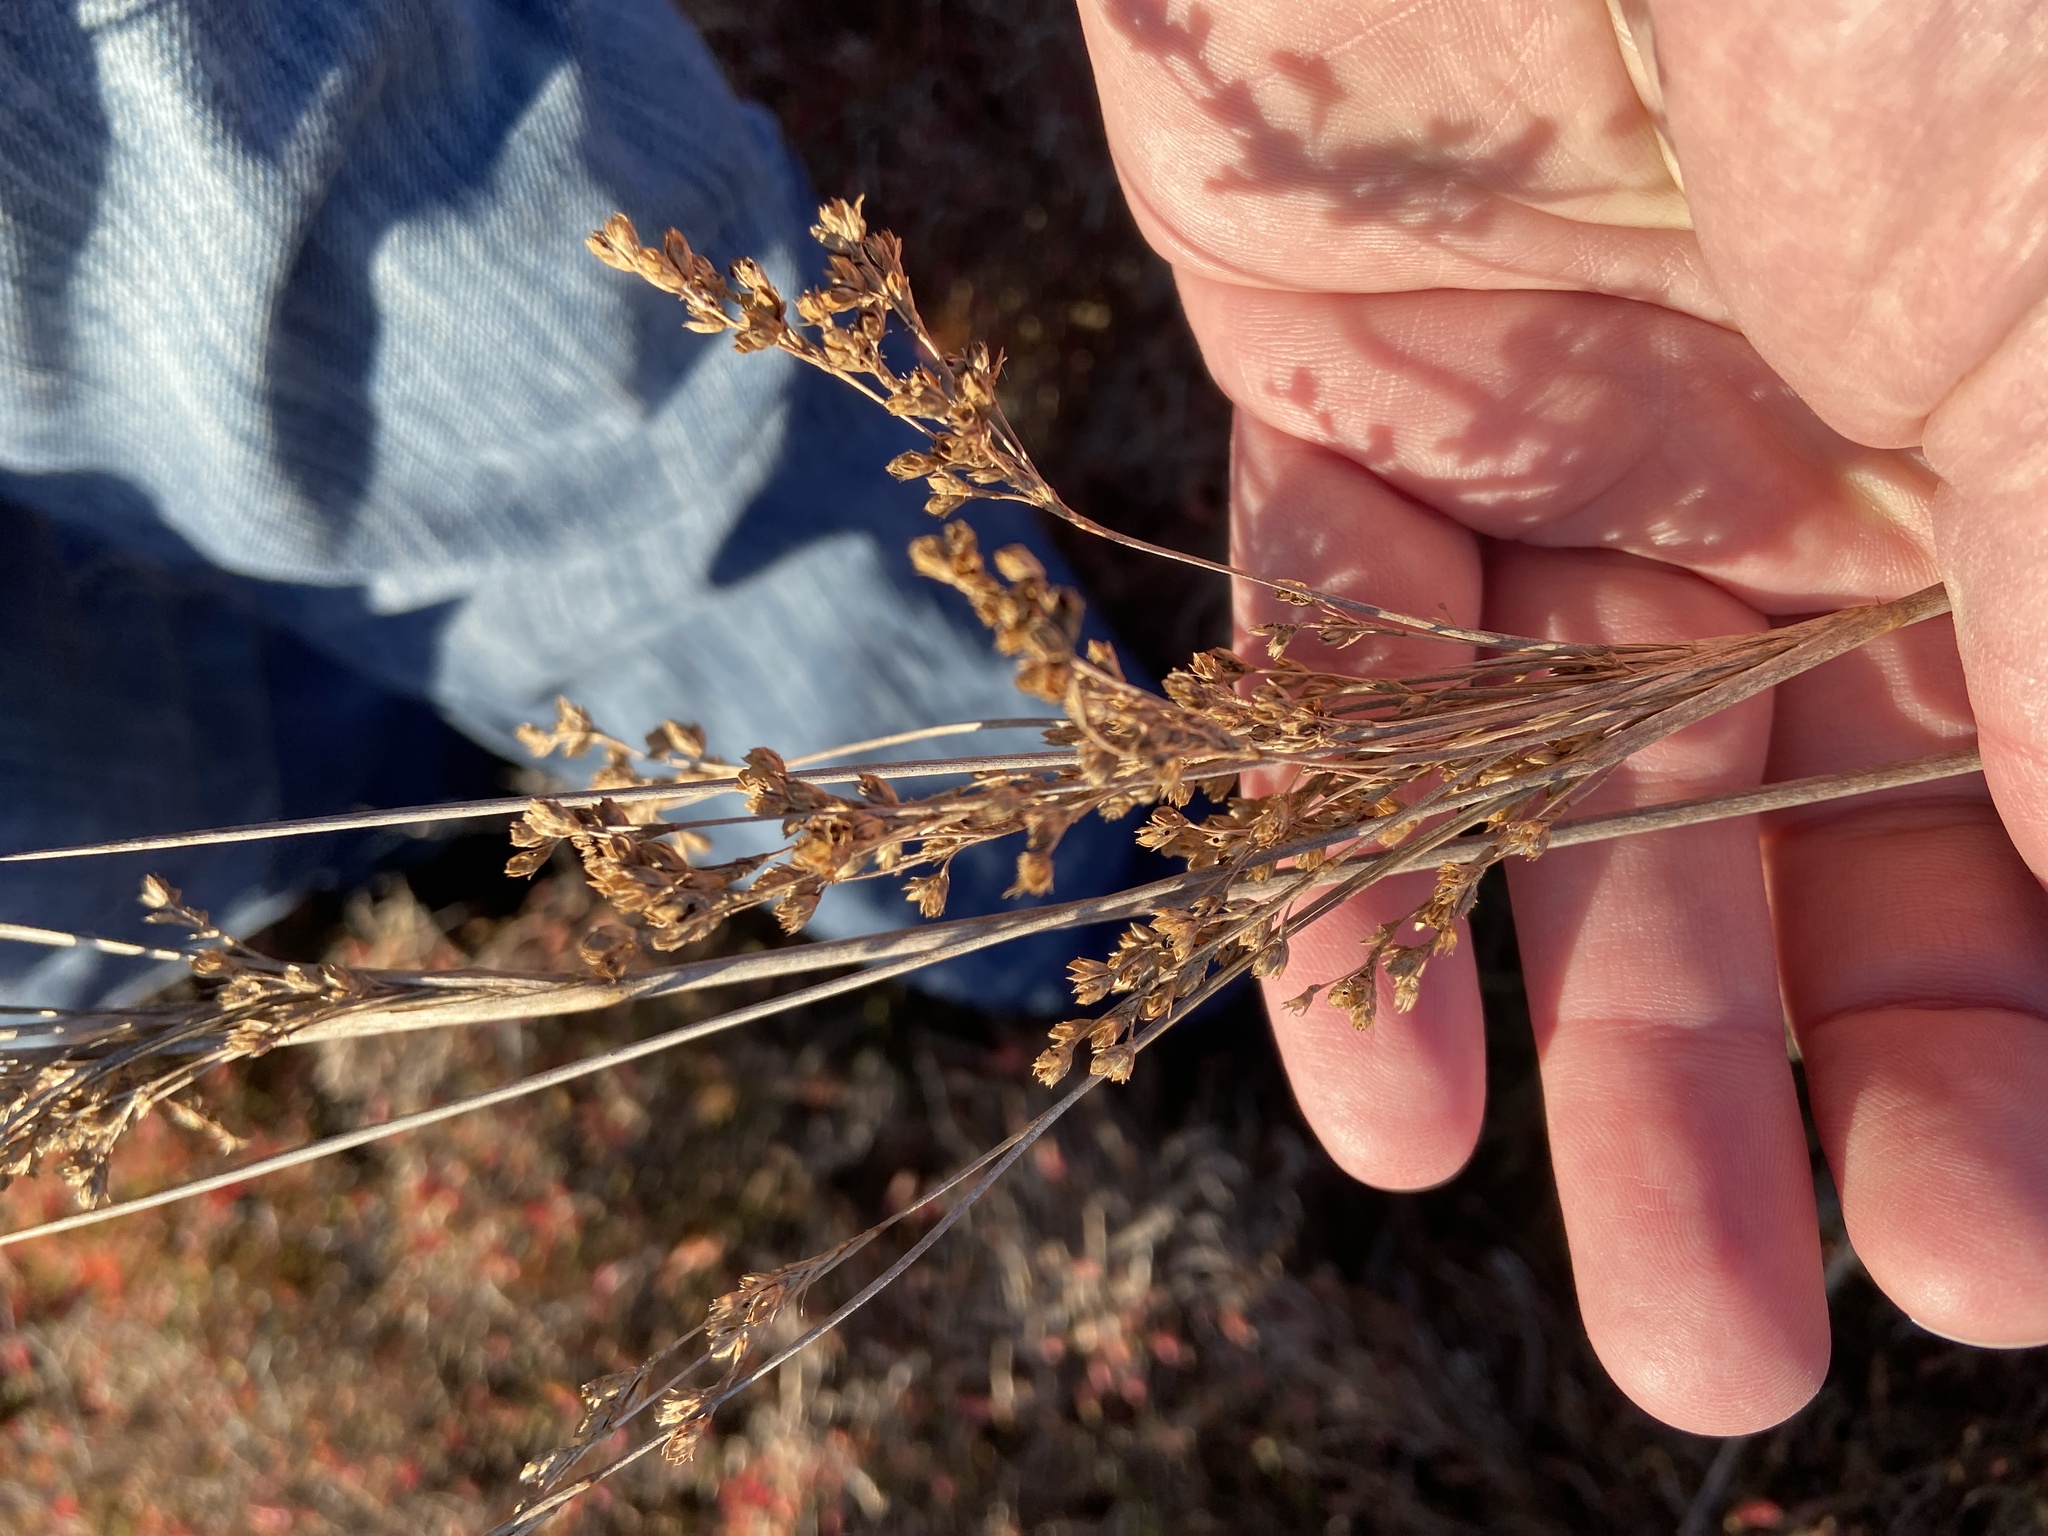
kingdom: Plantae
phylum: Tracheophyta
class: Liliopsida
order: Poales
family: Juncaceae
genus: Juncus
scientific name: Juncus maritimus
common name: Sea rush
